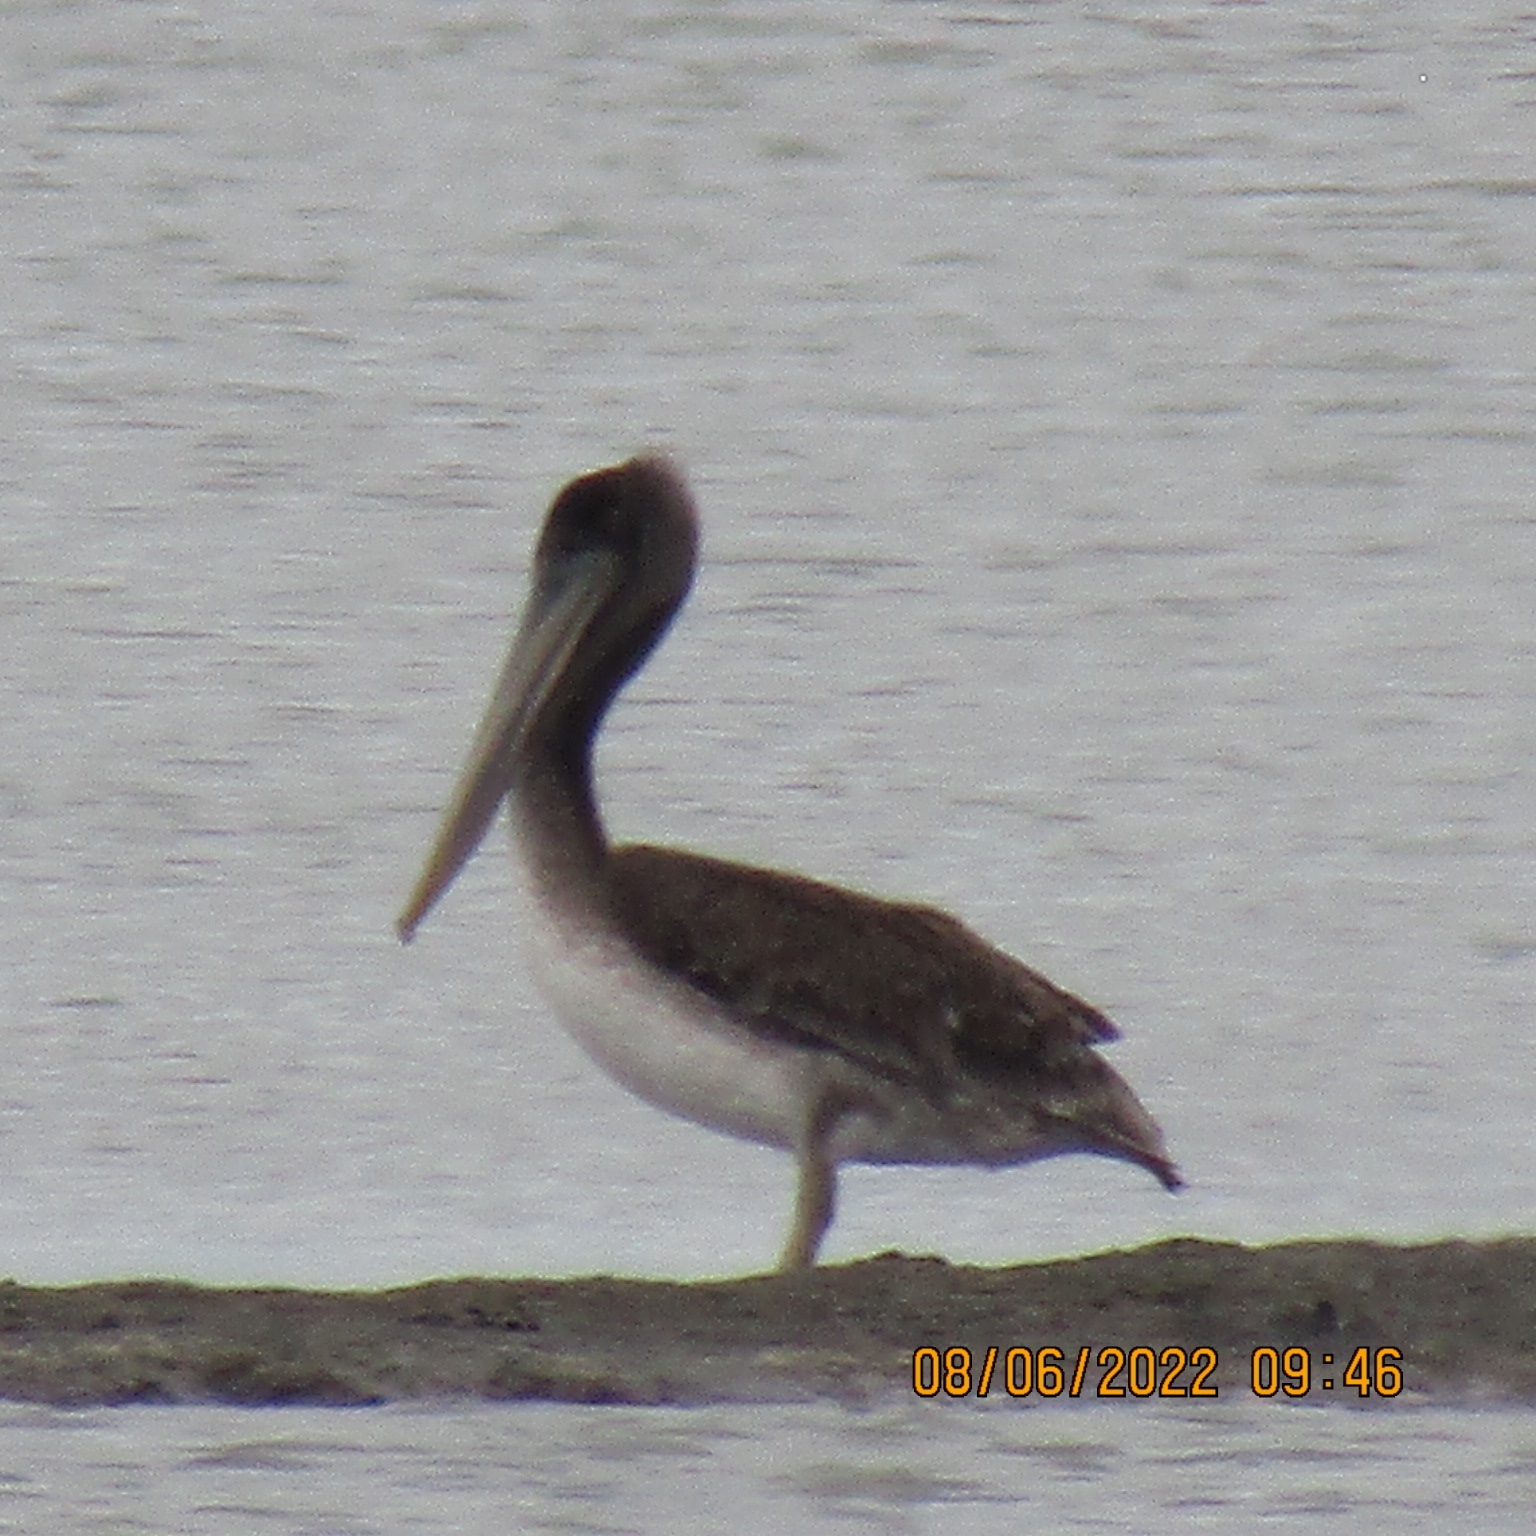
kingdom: Animalia
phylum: Chordata
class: Aves
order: Pelecaniformes
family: Pelecanidae
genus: Pelecanus
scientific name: Pelecanus occidentalis
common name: Brown pelican
